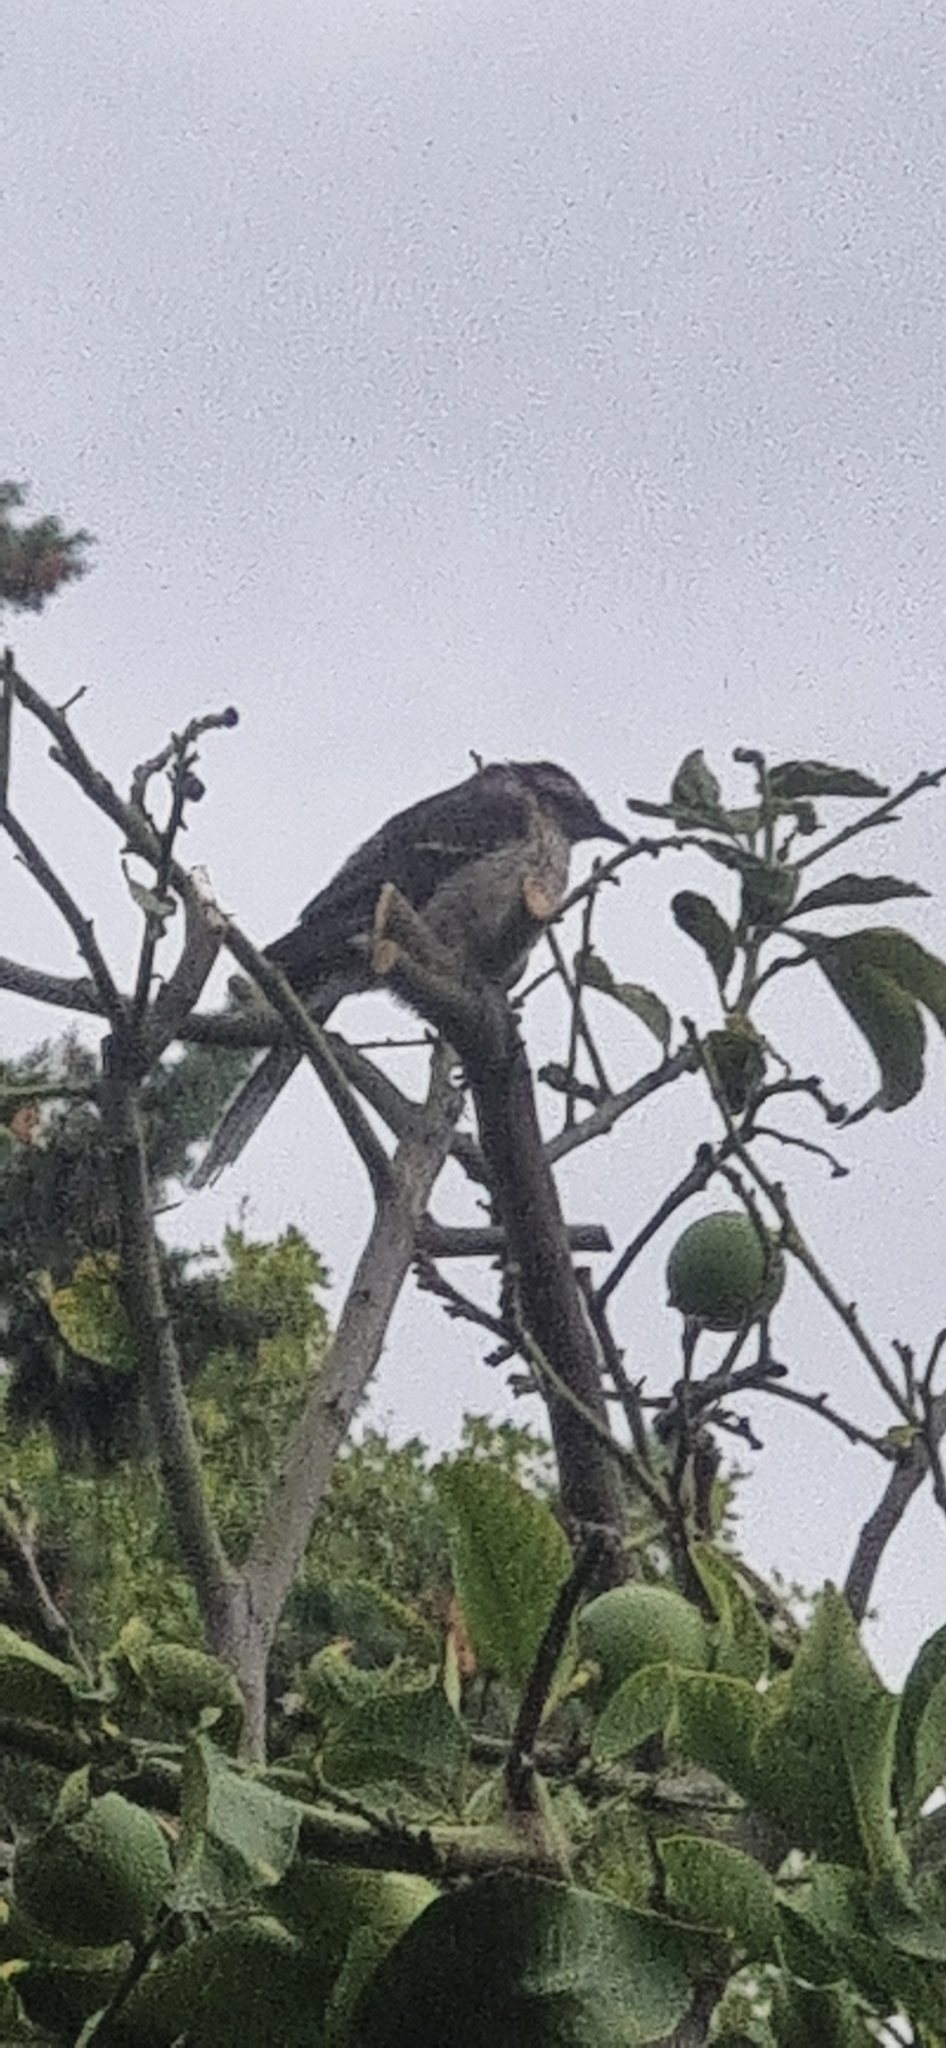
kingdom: Animalia
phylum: Chordata
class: Aves
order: Passeriformes
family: Mimidae
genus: Mimus
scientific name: Mimus saturninus
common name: Chalk-browed mockingbird
